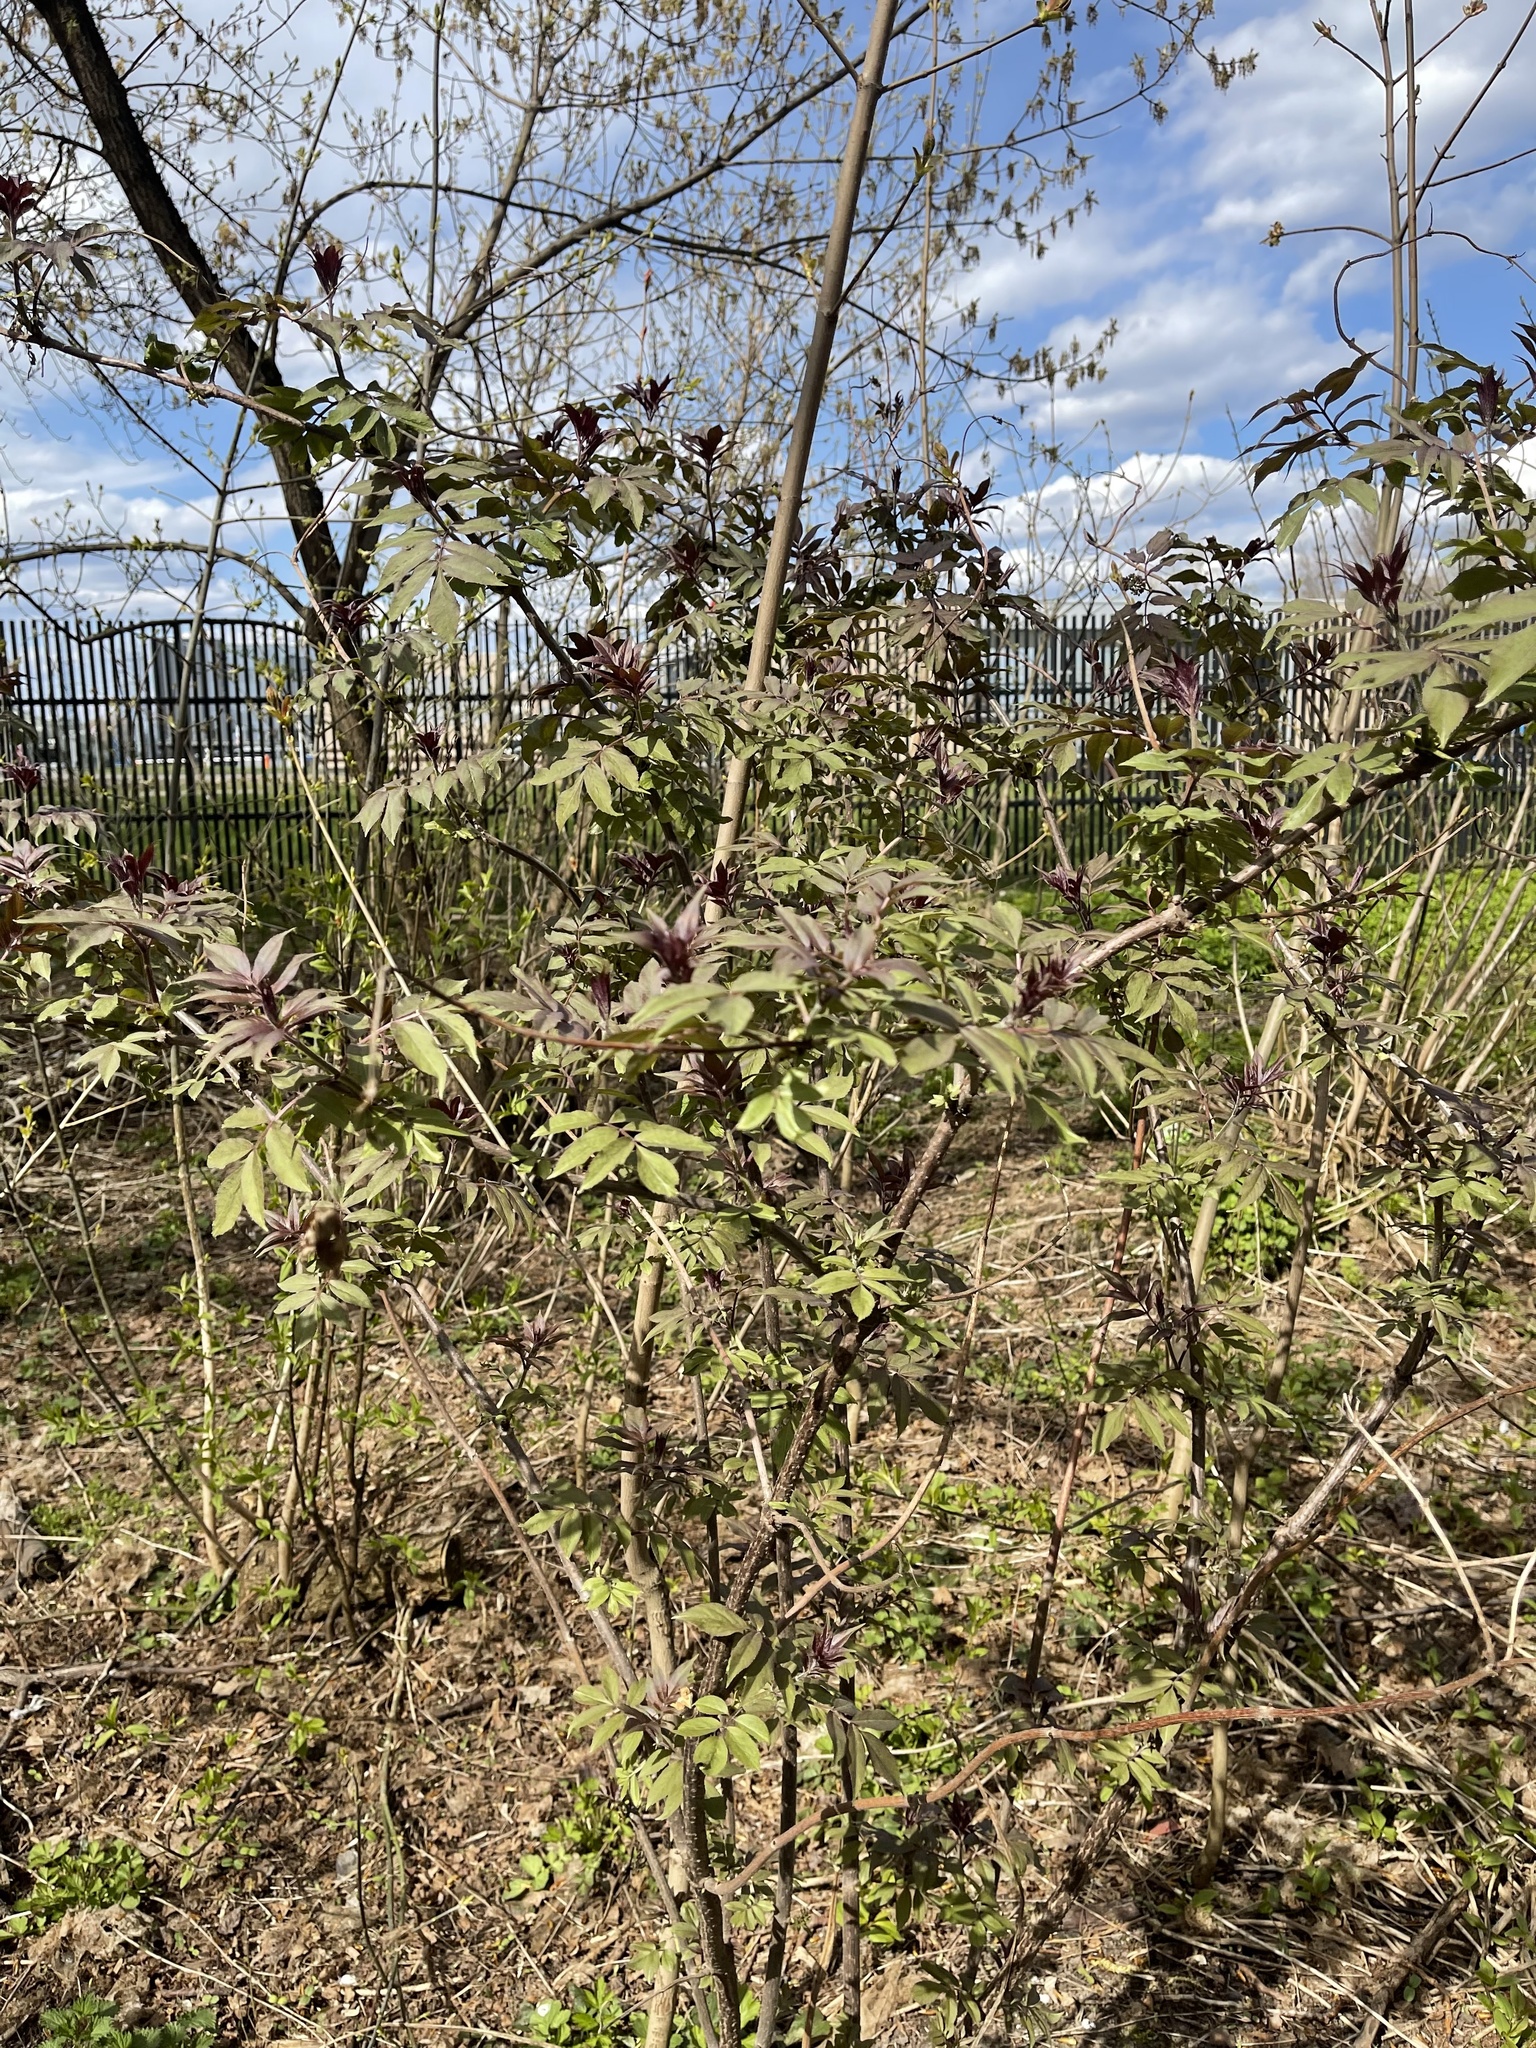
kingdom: Plantae
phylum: Tracheophyta
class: Magnoliopsida
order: Dipsacales
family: Viburnaceae
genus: Sambucus
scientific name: Sambucus racemosa
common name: Red-berried elder
